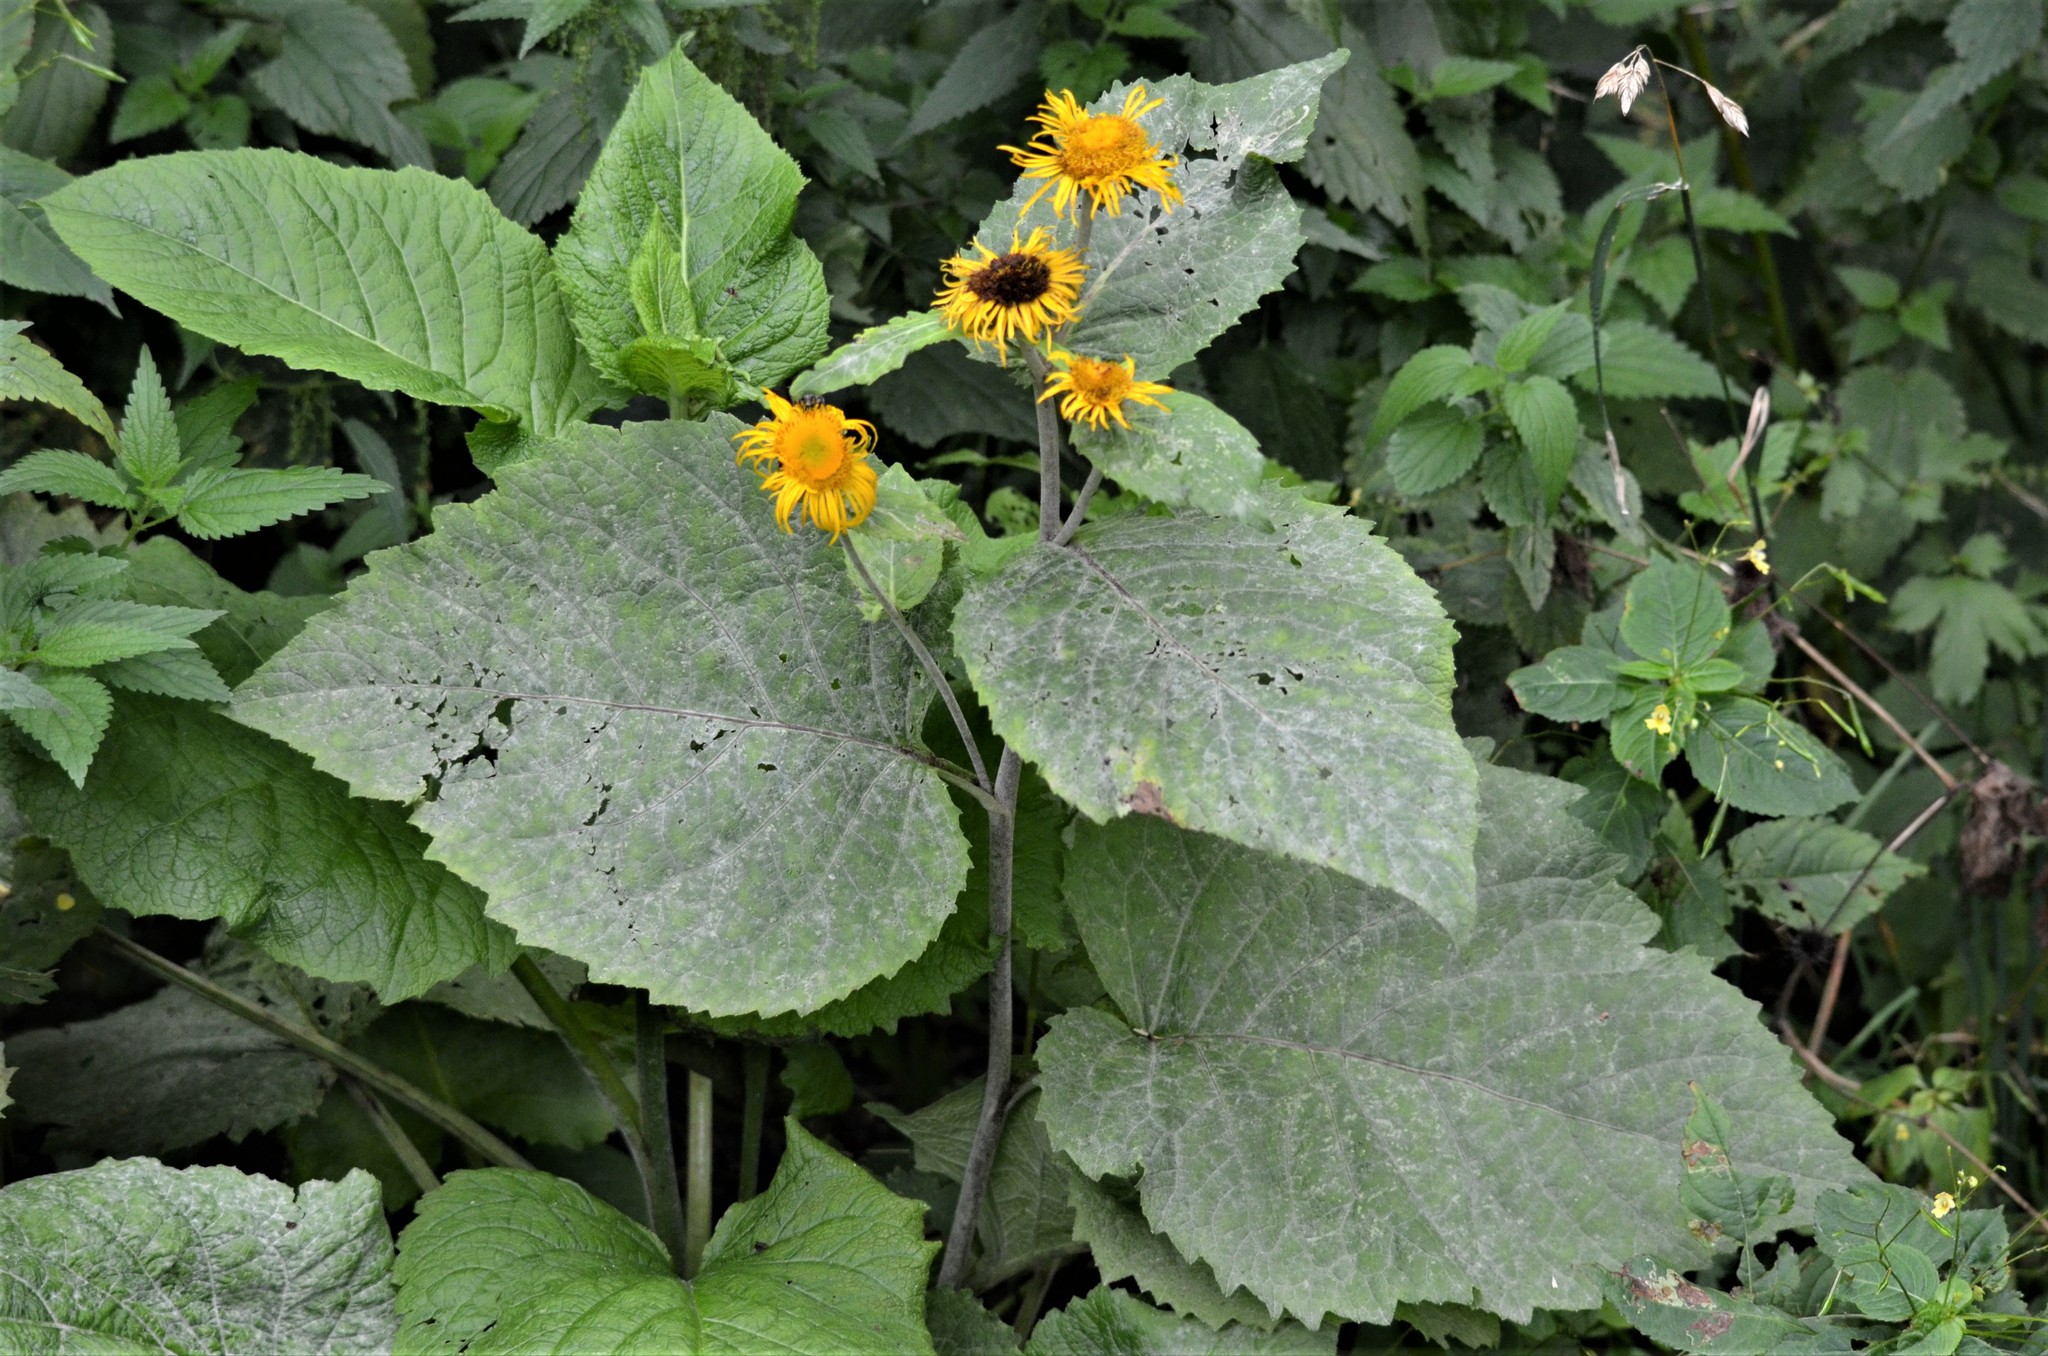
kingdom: Plantae
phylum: Tracheophyta
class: Magnoliopsida
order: Asterales
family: Asteraceae
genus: Telekia
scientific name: Telekia speciosa
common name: Yellow oxeye
